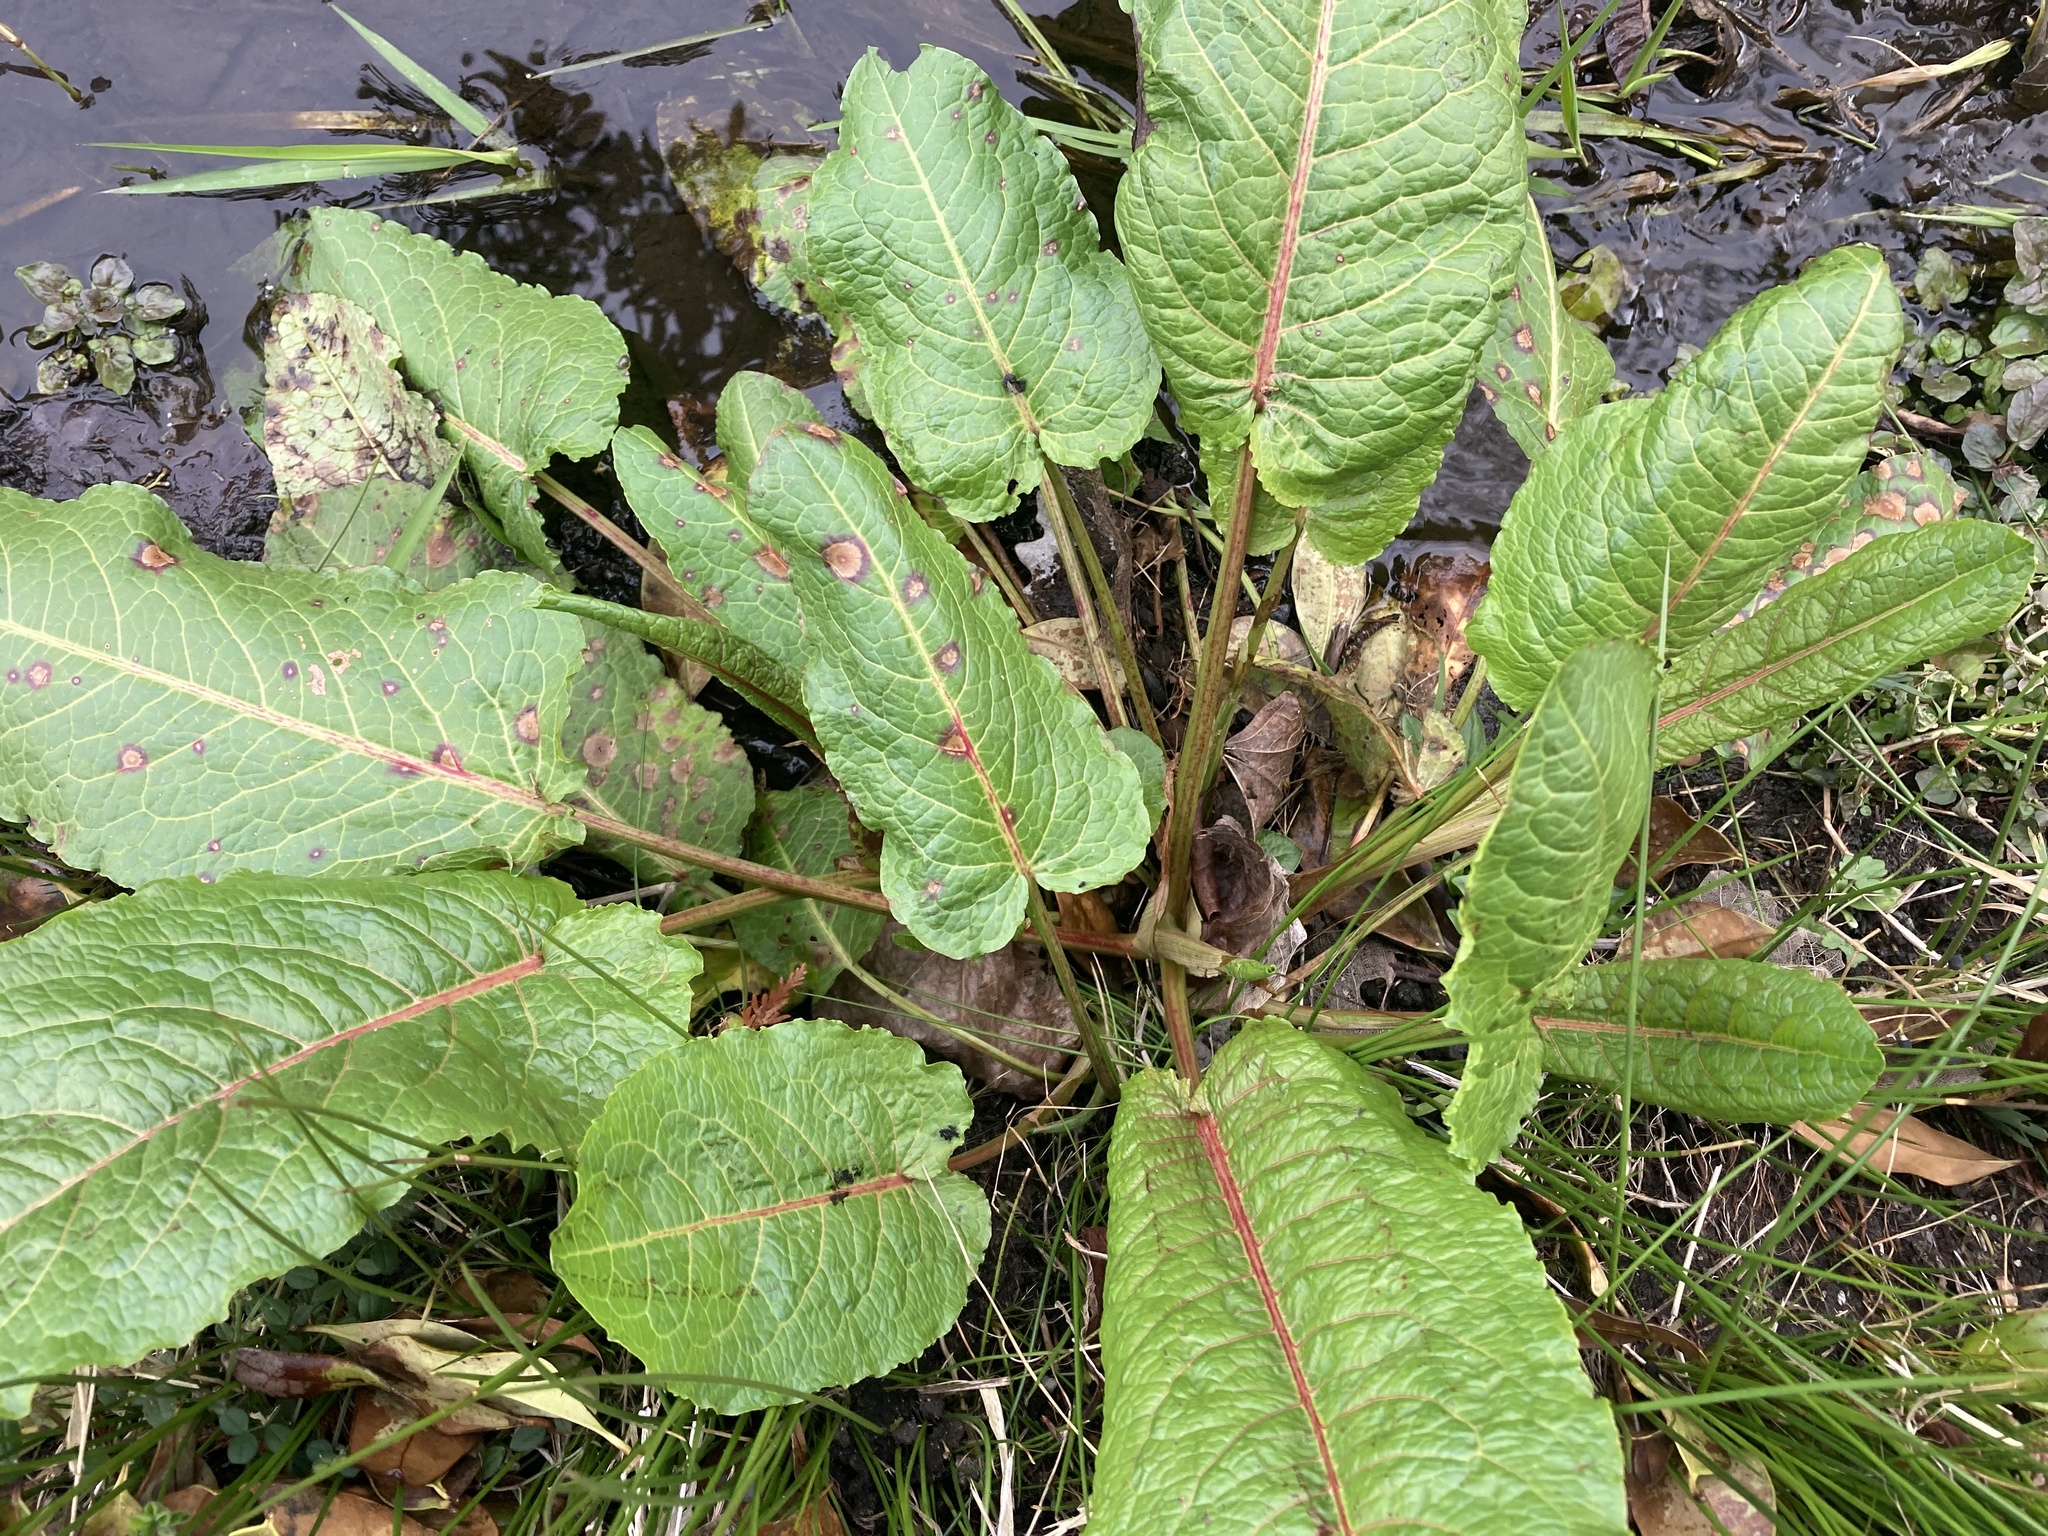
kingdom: Plantae
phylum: Tracheophyta
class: Magnoliopsida
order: Caryophyllales
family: Polygonaceae
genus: Rumex
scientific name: Rumex obtusifolius
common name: Bitter dock
